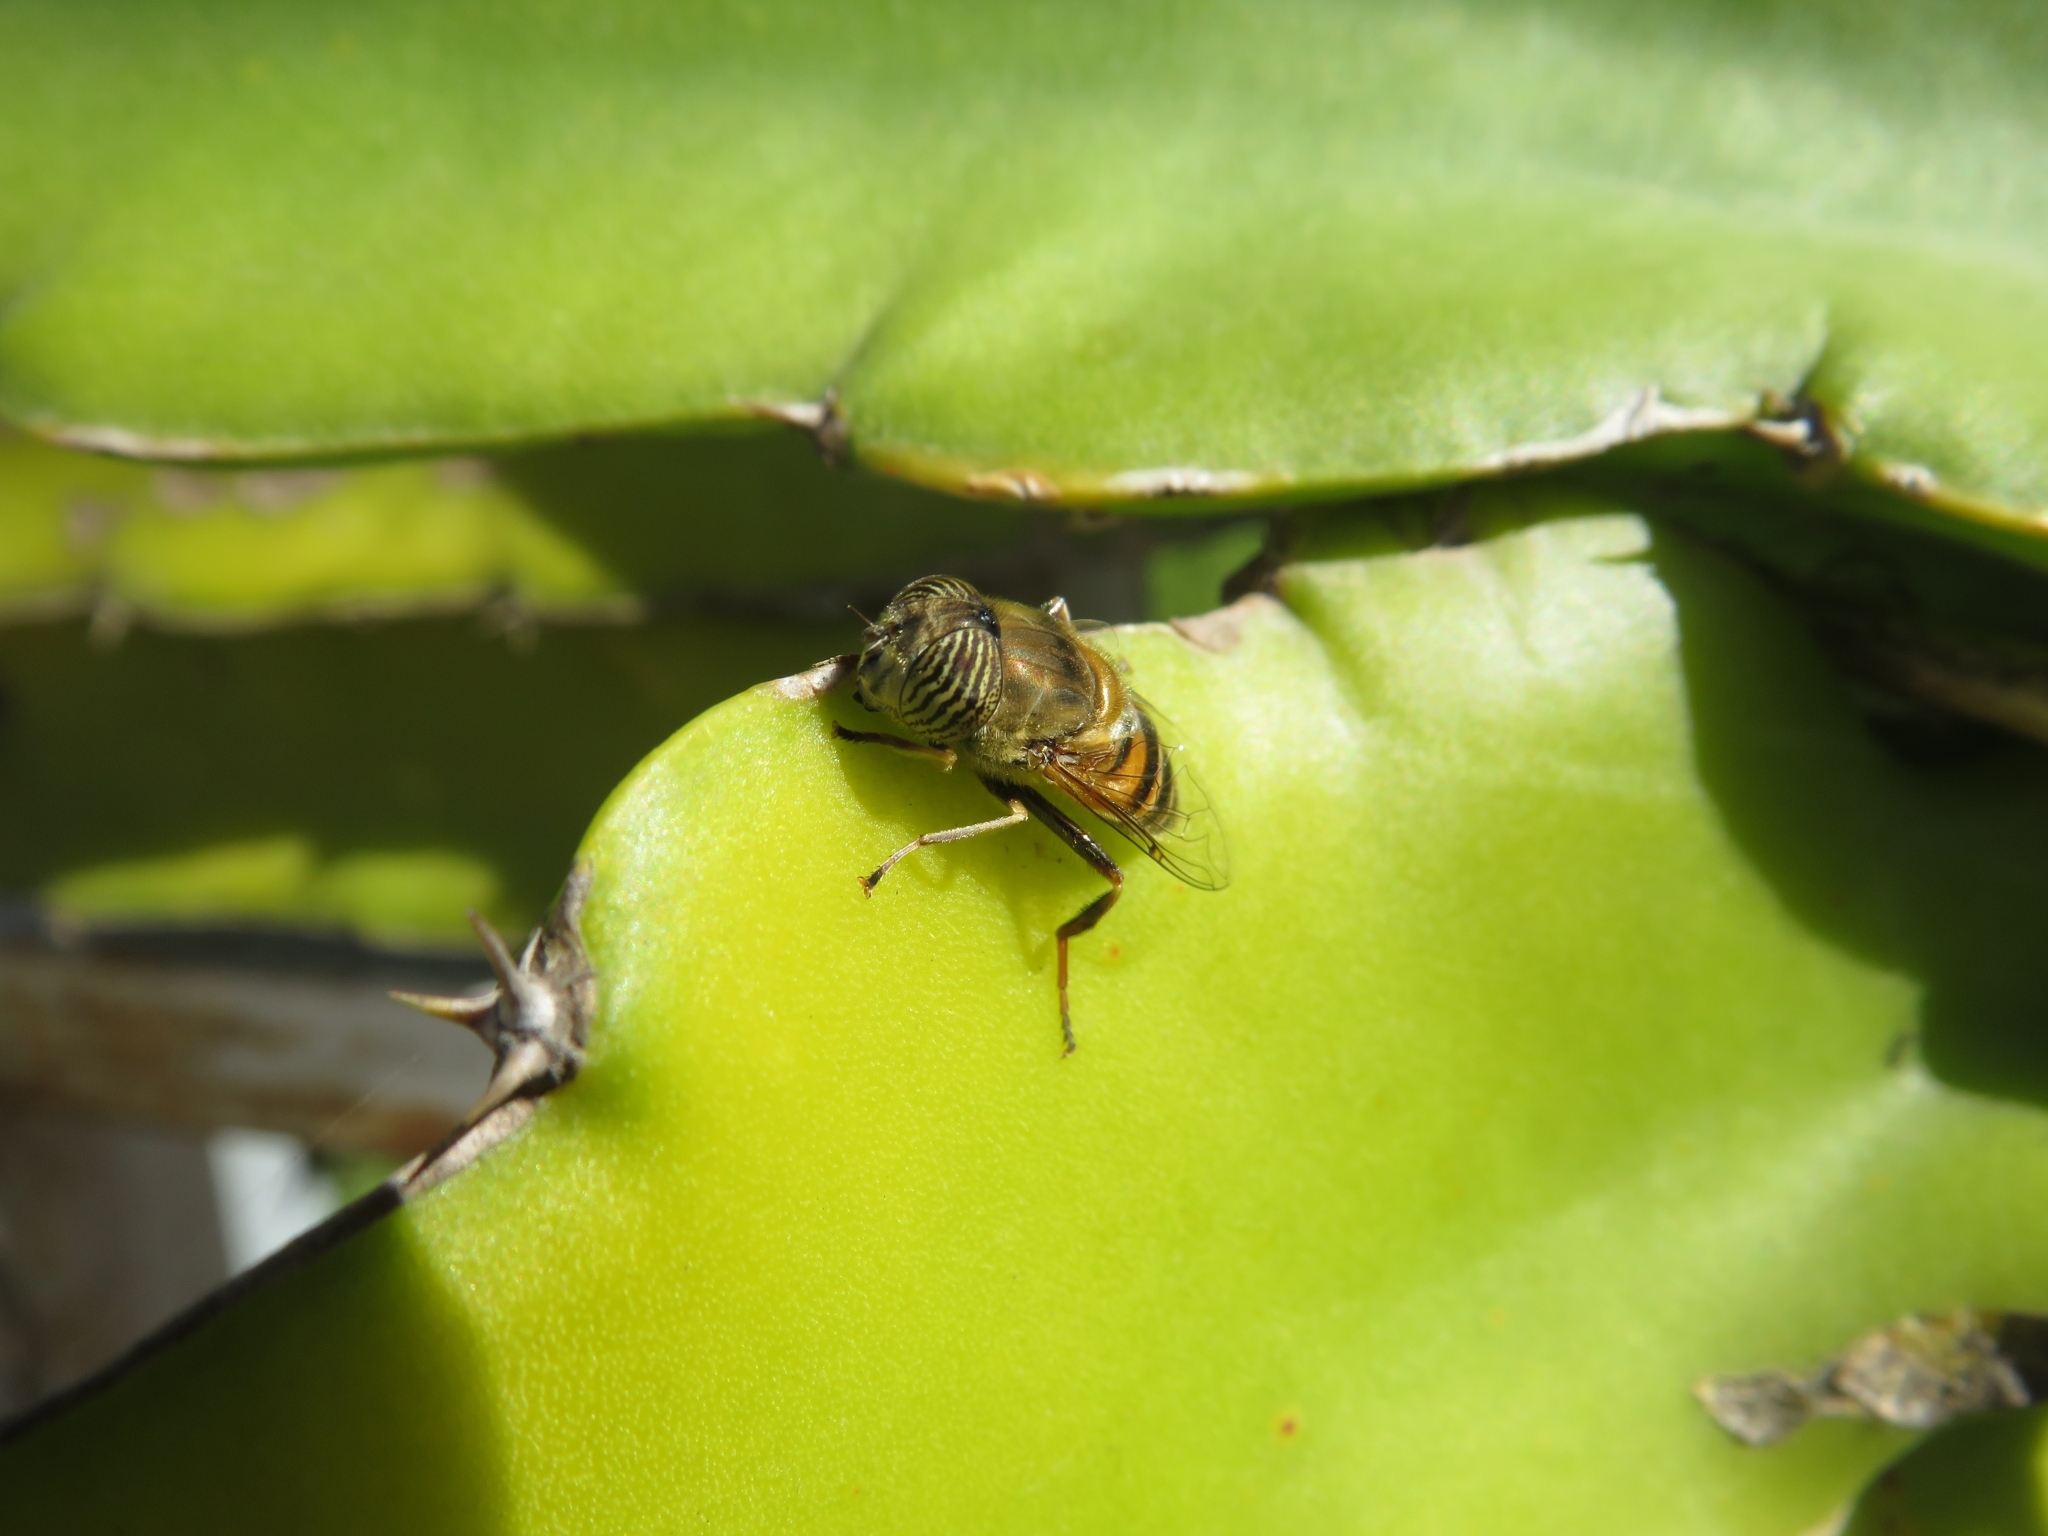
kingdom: Animalia
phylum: Arthropoda
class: Insecta
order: Diptera
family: Syrphidae
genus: Eristalinus
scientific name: Eristalinus taeniops
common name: Syrphid fly
